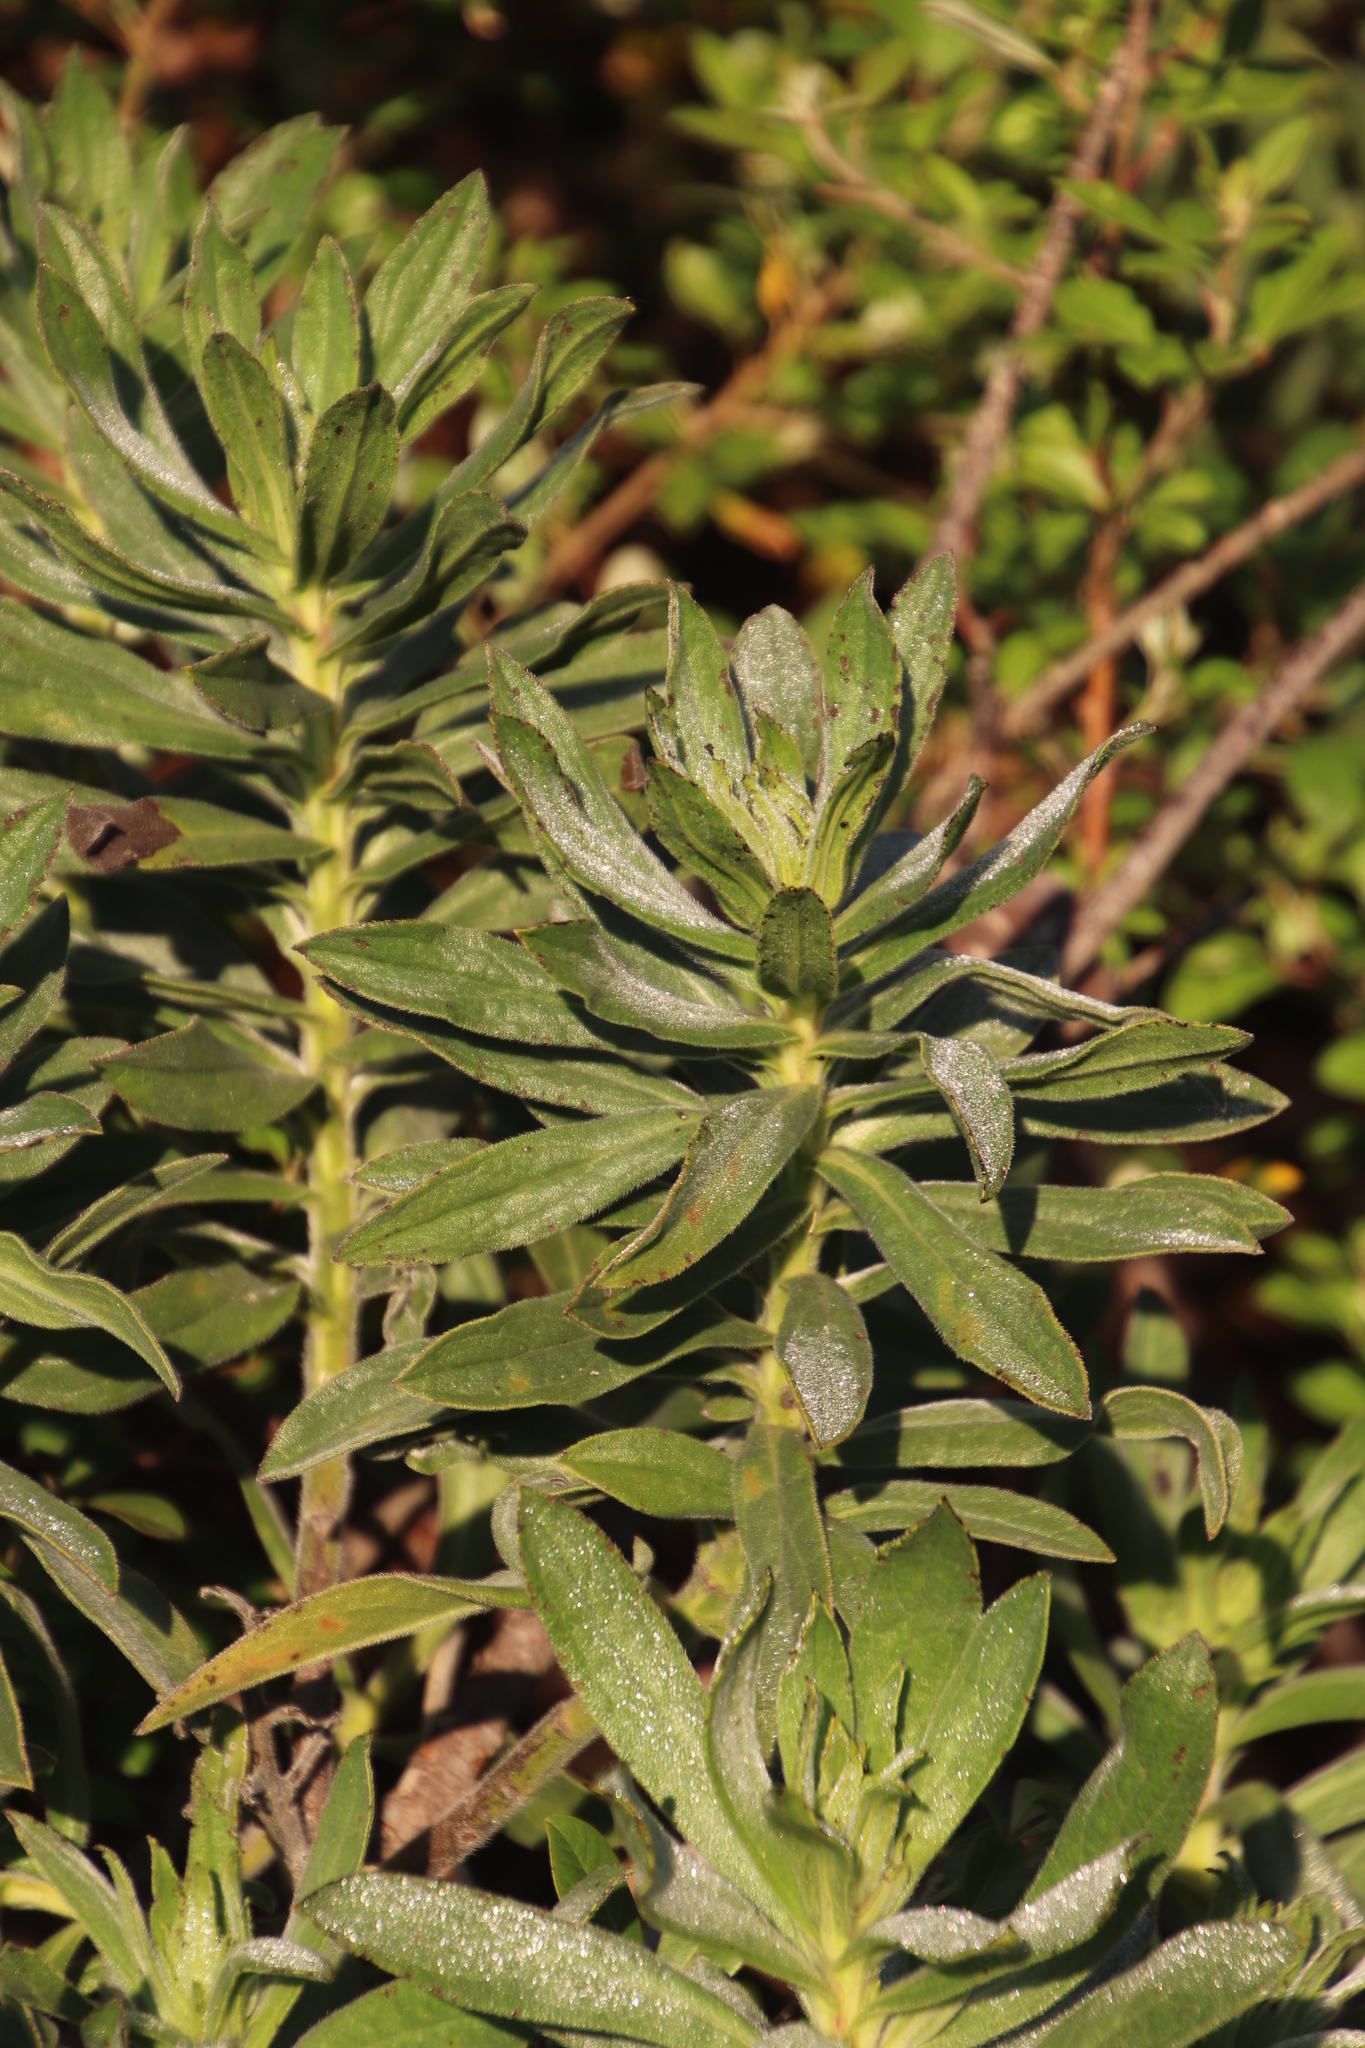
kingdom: Plantae
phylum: Tracheophyta
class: Magnoliopsida
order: Boraginales
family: Boraginaceae
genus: Lobostemon
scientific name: Lobostemon montanus
